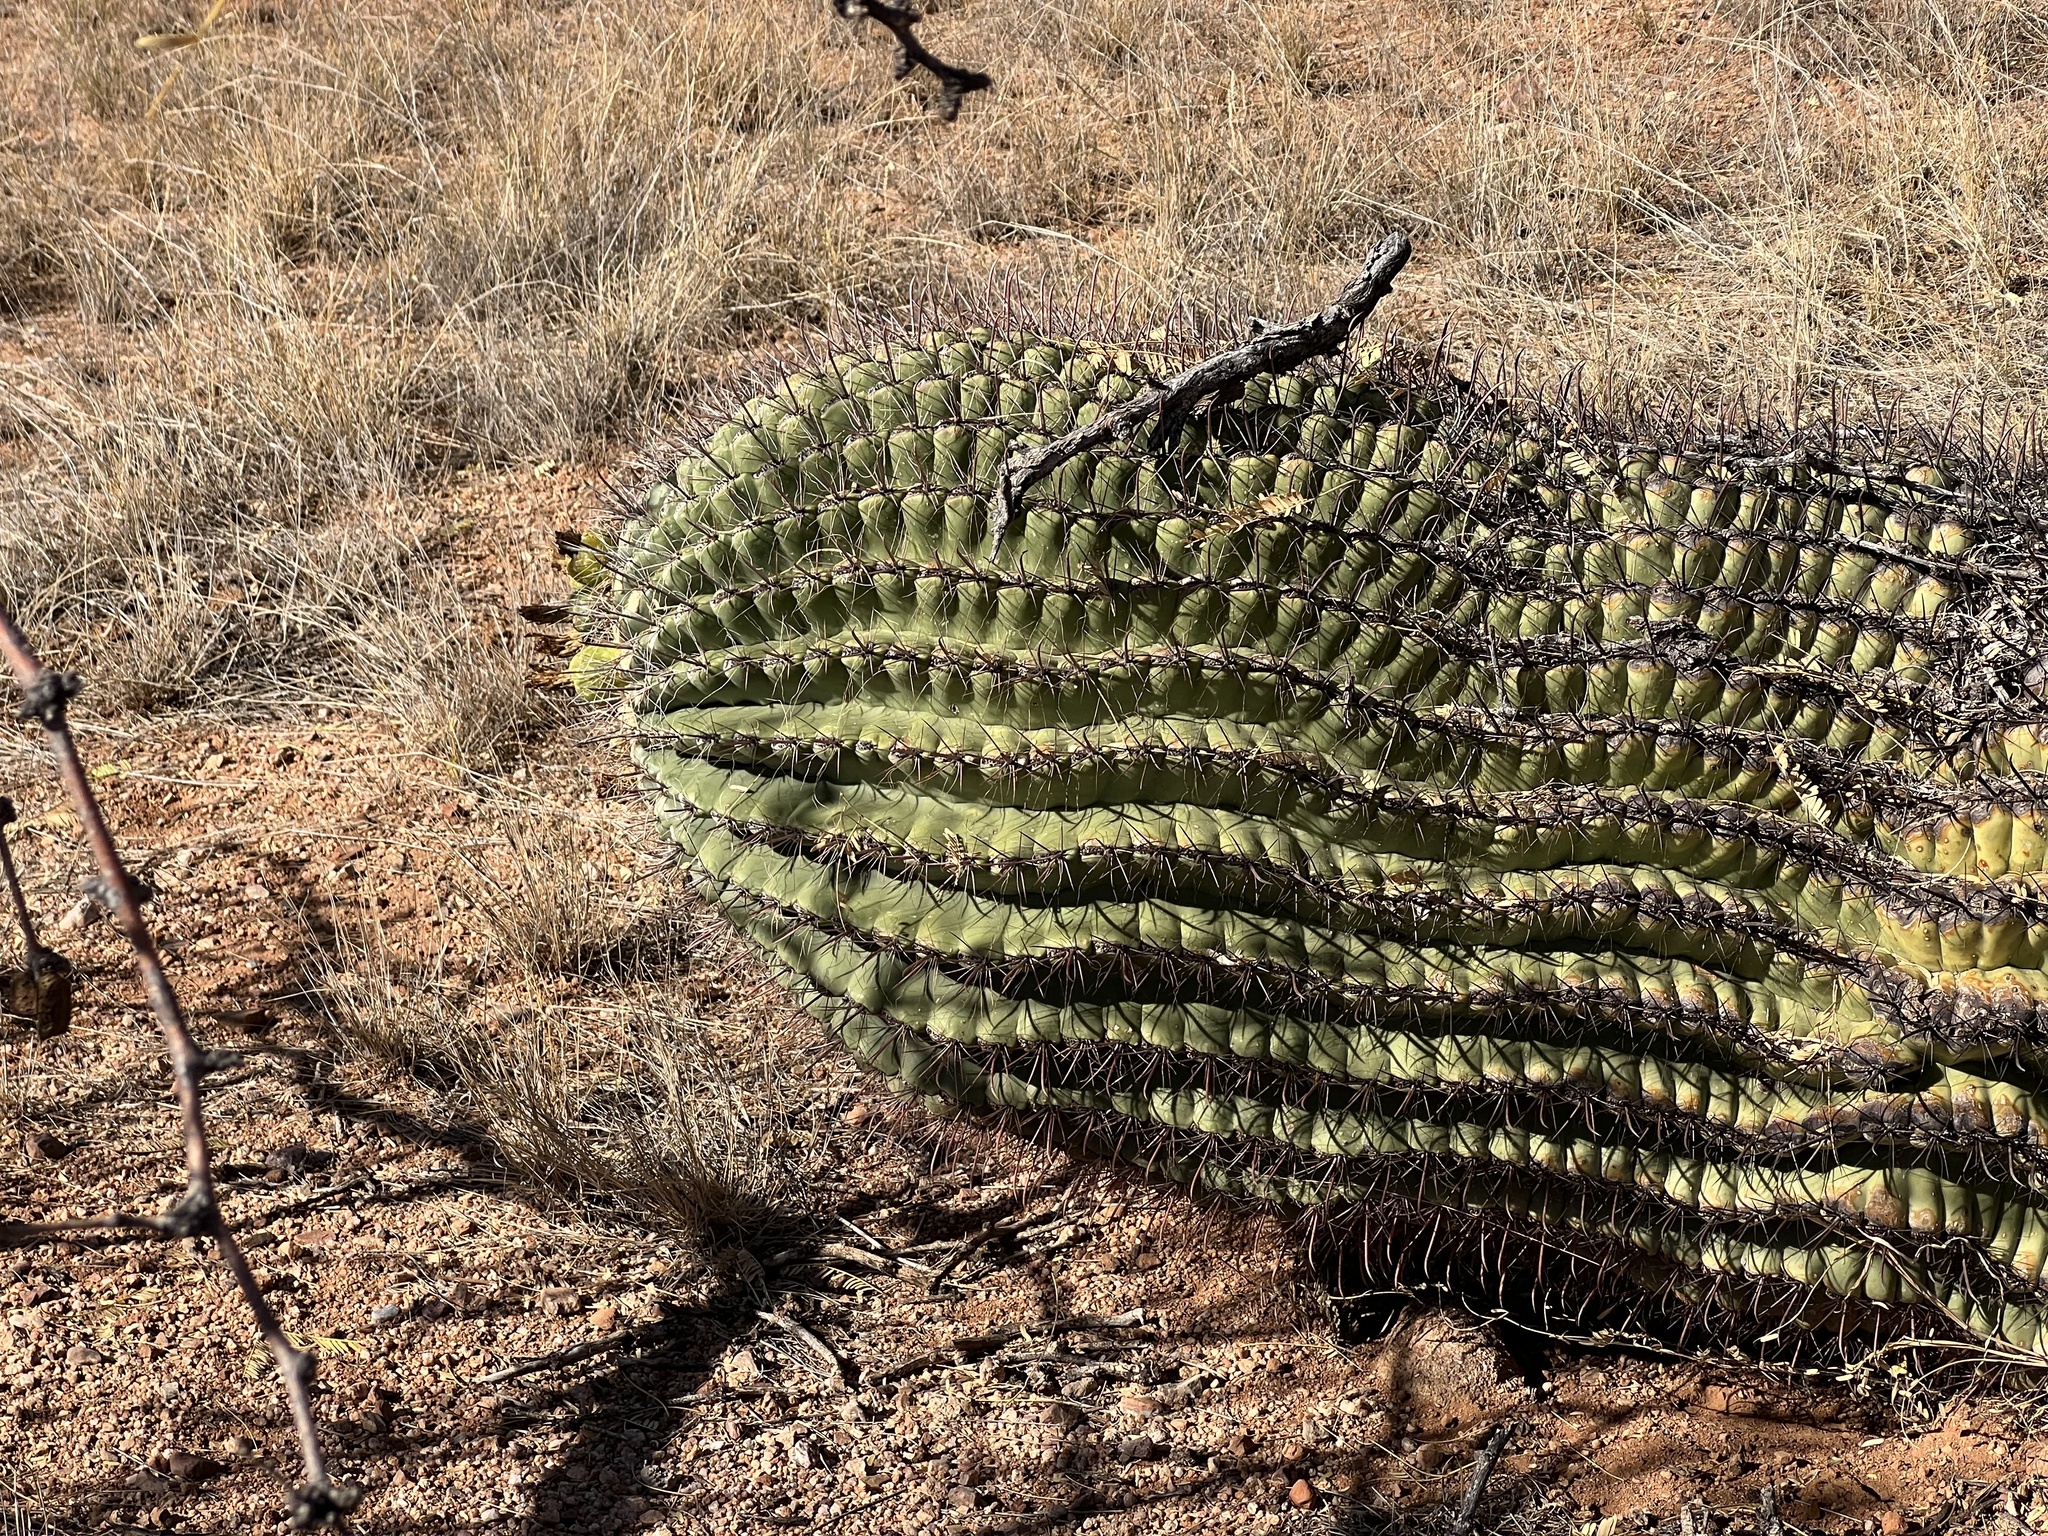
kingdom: Plantae
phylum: Tracheophyta
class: Magnoliopsida
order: Caryophyllales
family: Cactaceae
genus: Ferocactus
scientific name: Ferocactus wislizeni
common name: Candy barrel cactus
